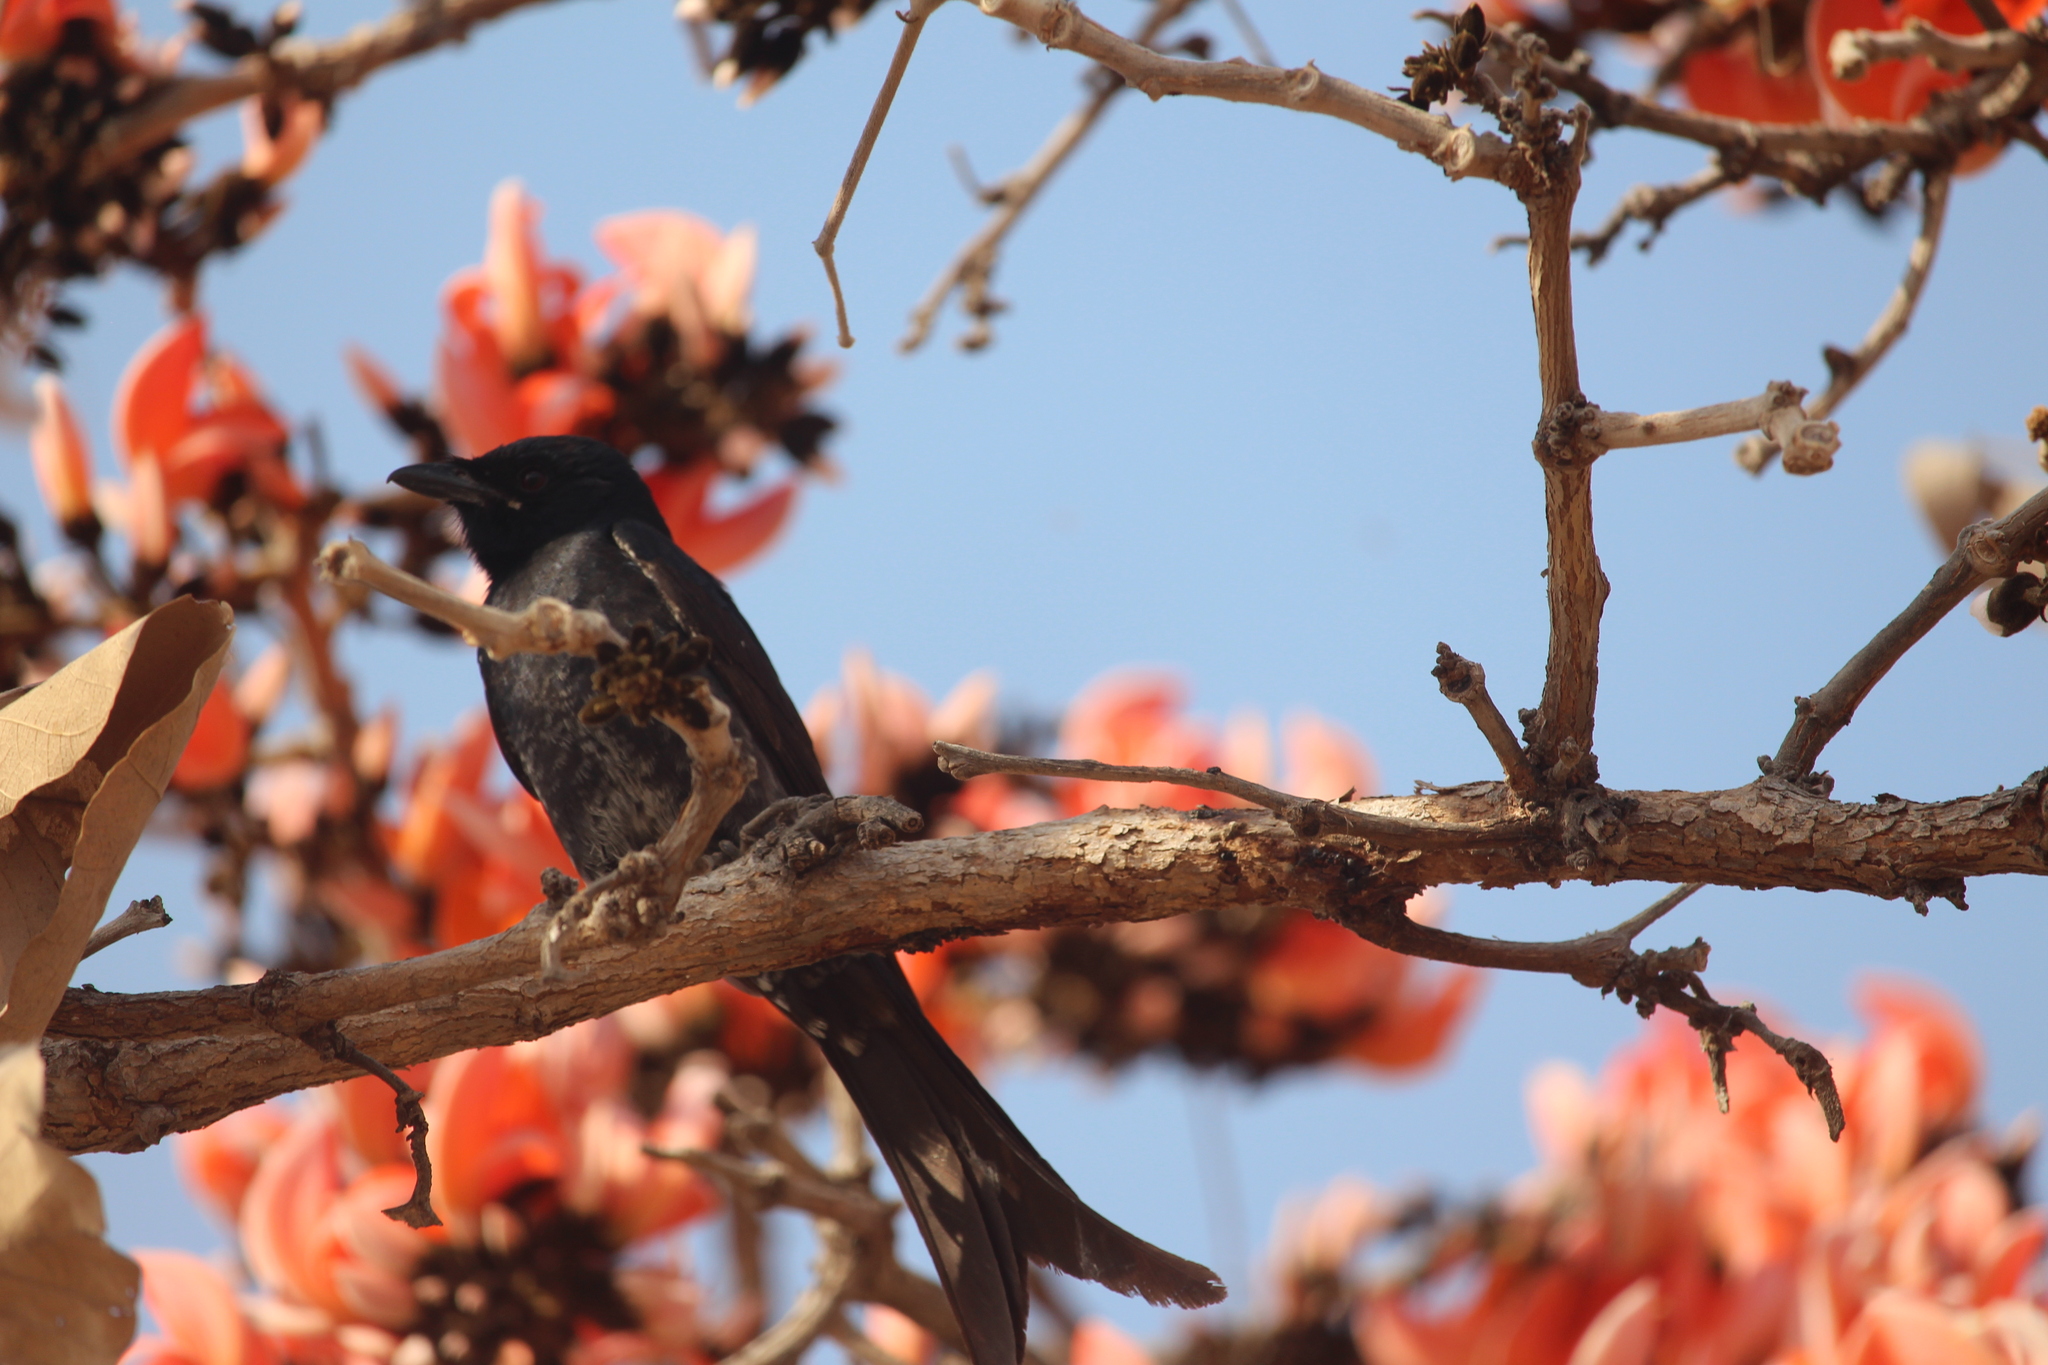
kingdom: Animalia
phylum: Chordata
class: Aves
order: Passeriformes
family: Dicruridae
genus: Dicrurus
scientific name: Dicrurus macrocercus
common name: Black drongo
